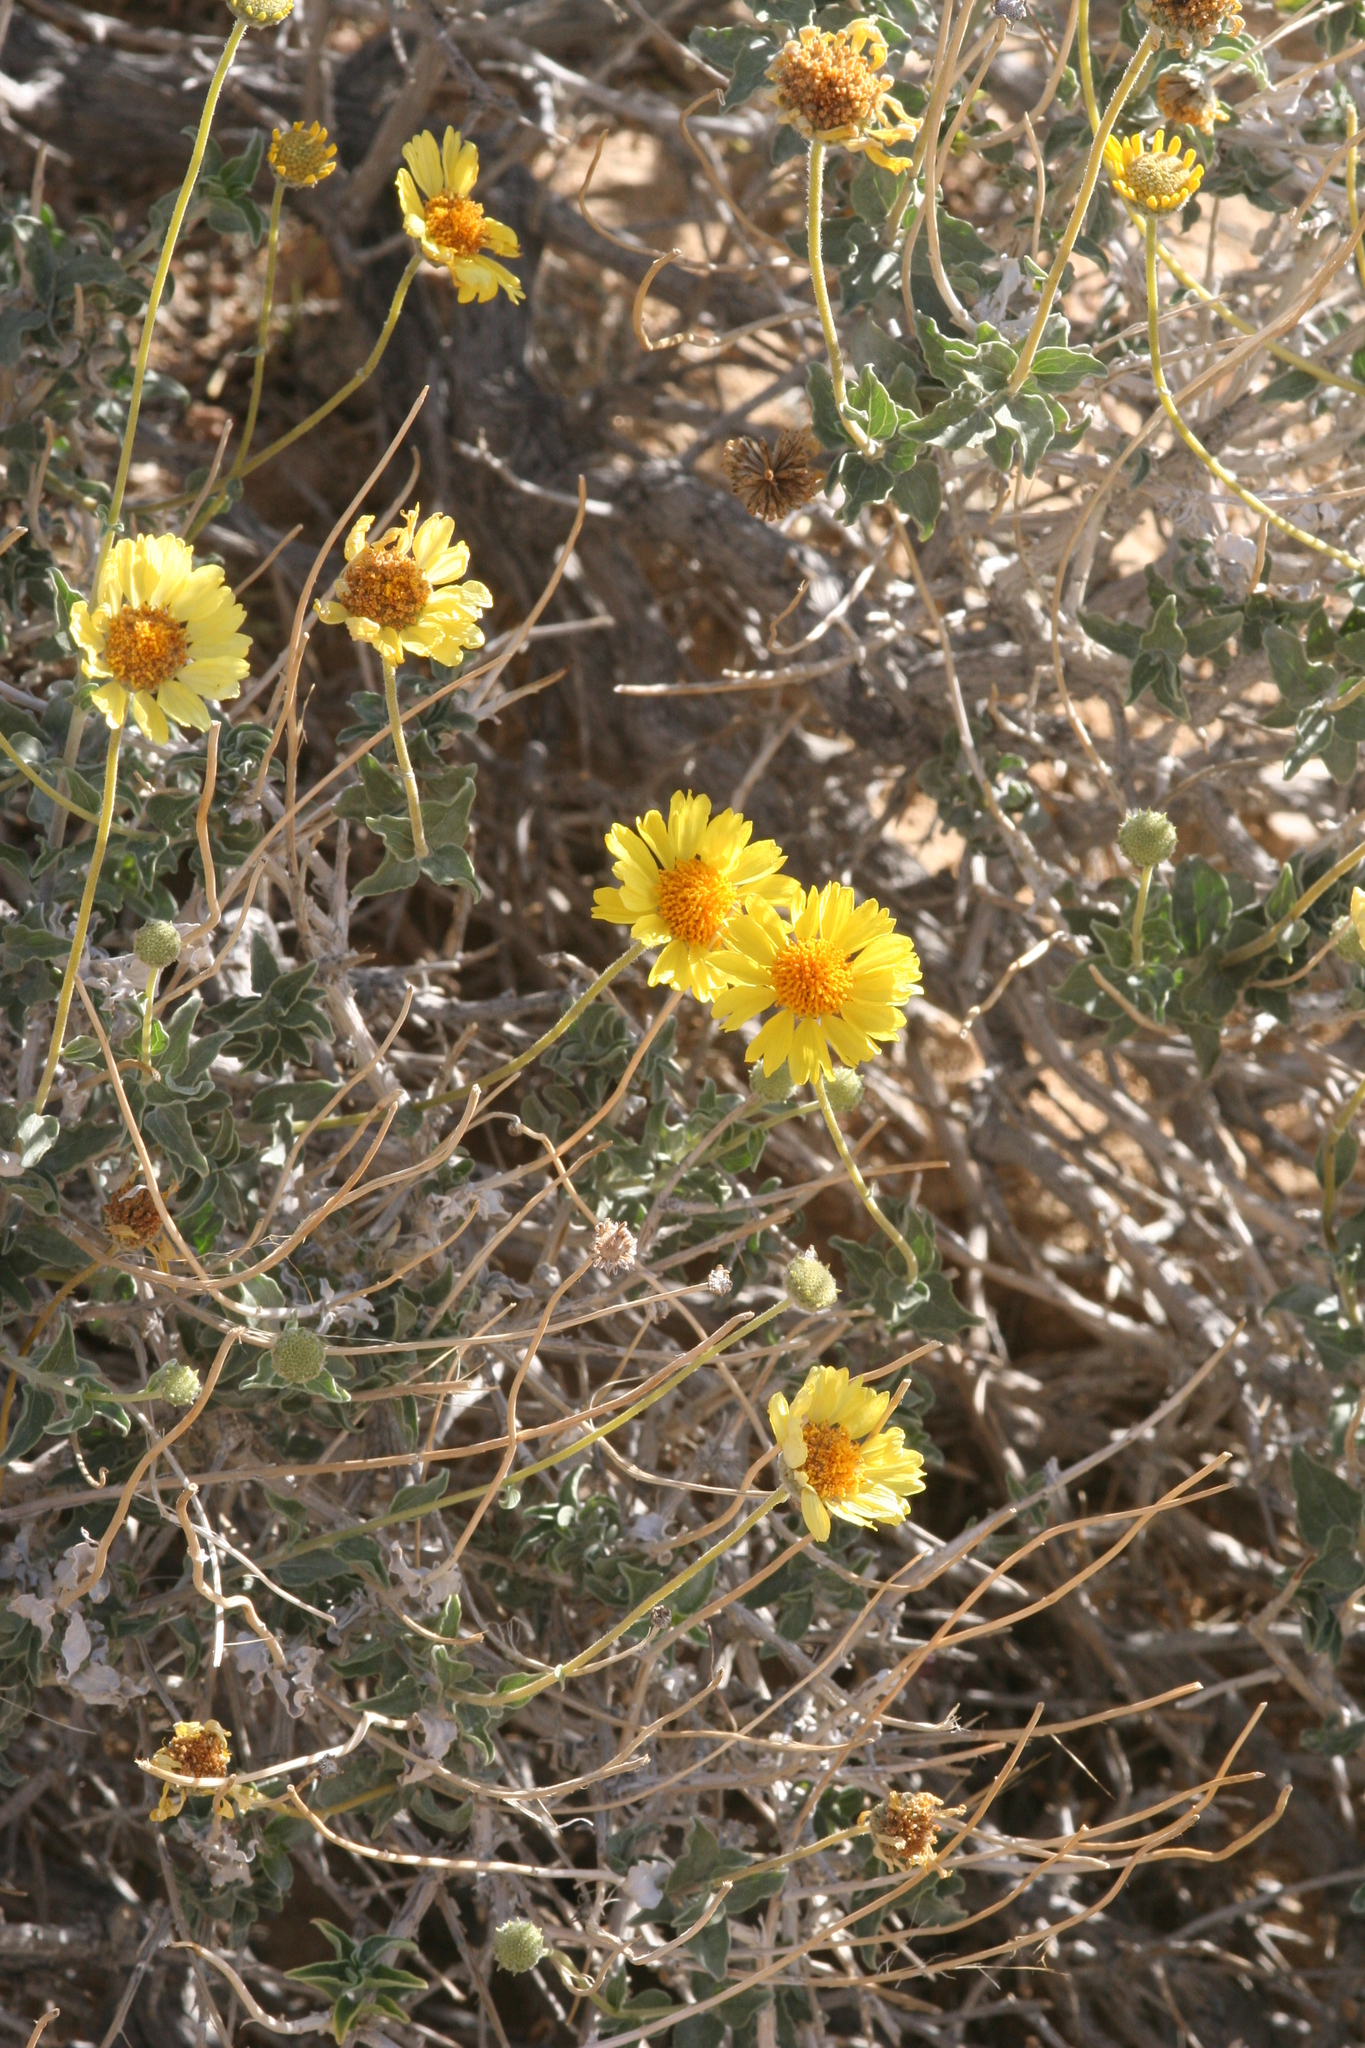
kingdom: Plantae
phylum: Tracheophyta
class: Magnoliopsida
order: Asterales
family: Asteraceae
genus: Encelia
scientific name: Encelia actoni
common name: Acton encelia
